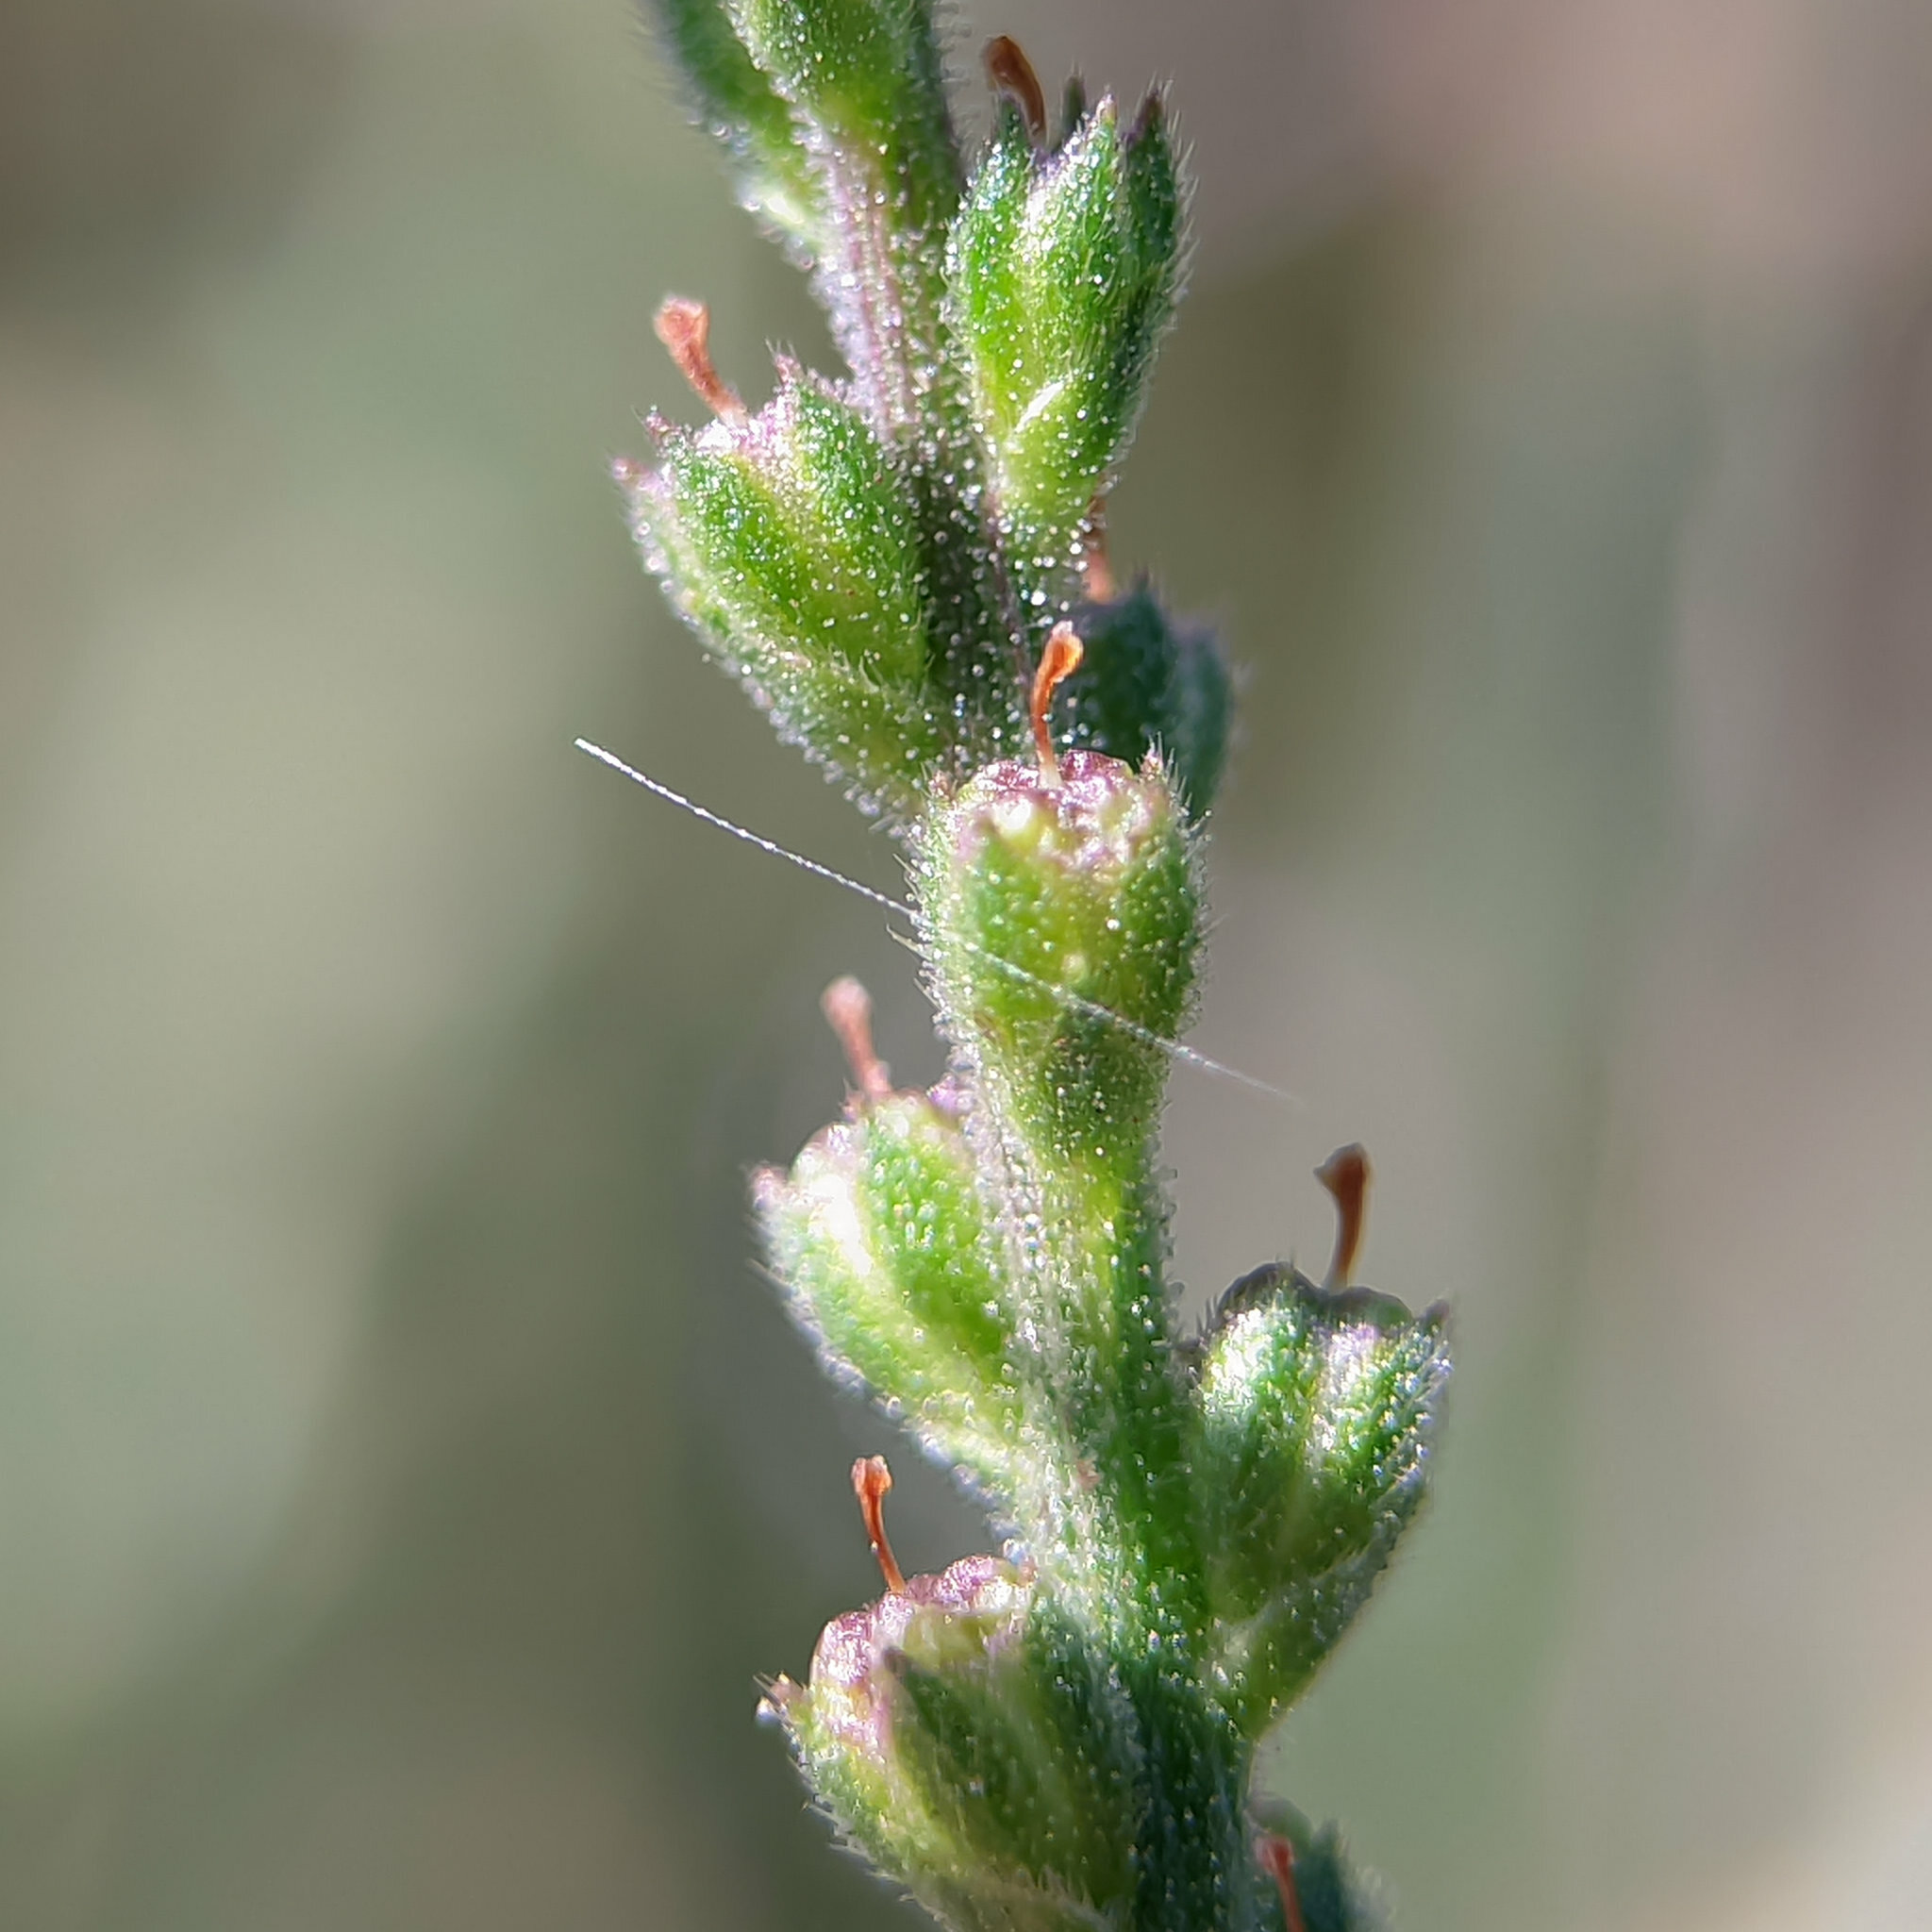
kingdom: Plantae
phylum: Tracheophyta
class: Magnoliopsida
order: Lamiales
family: Verbenaceae
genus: Verbena
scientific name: Verbena officinalis
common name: Vervain
